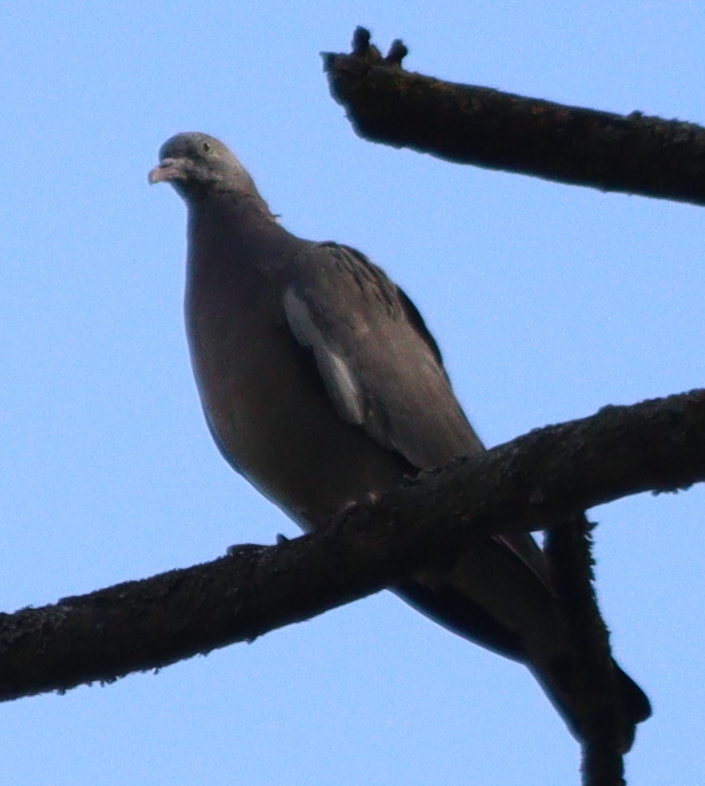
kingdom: Animalia
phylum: Chordata
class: Aves
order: Columbiformes
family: Columbidae
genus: Columba
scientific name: Columba palumbus
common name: Common wood pigeon
